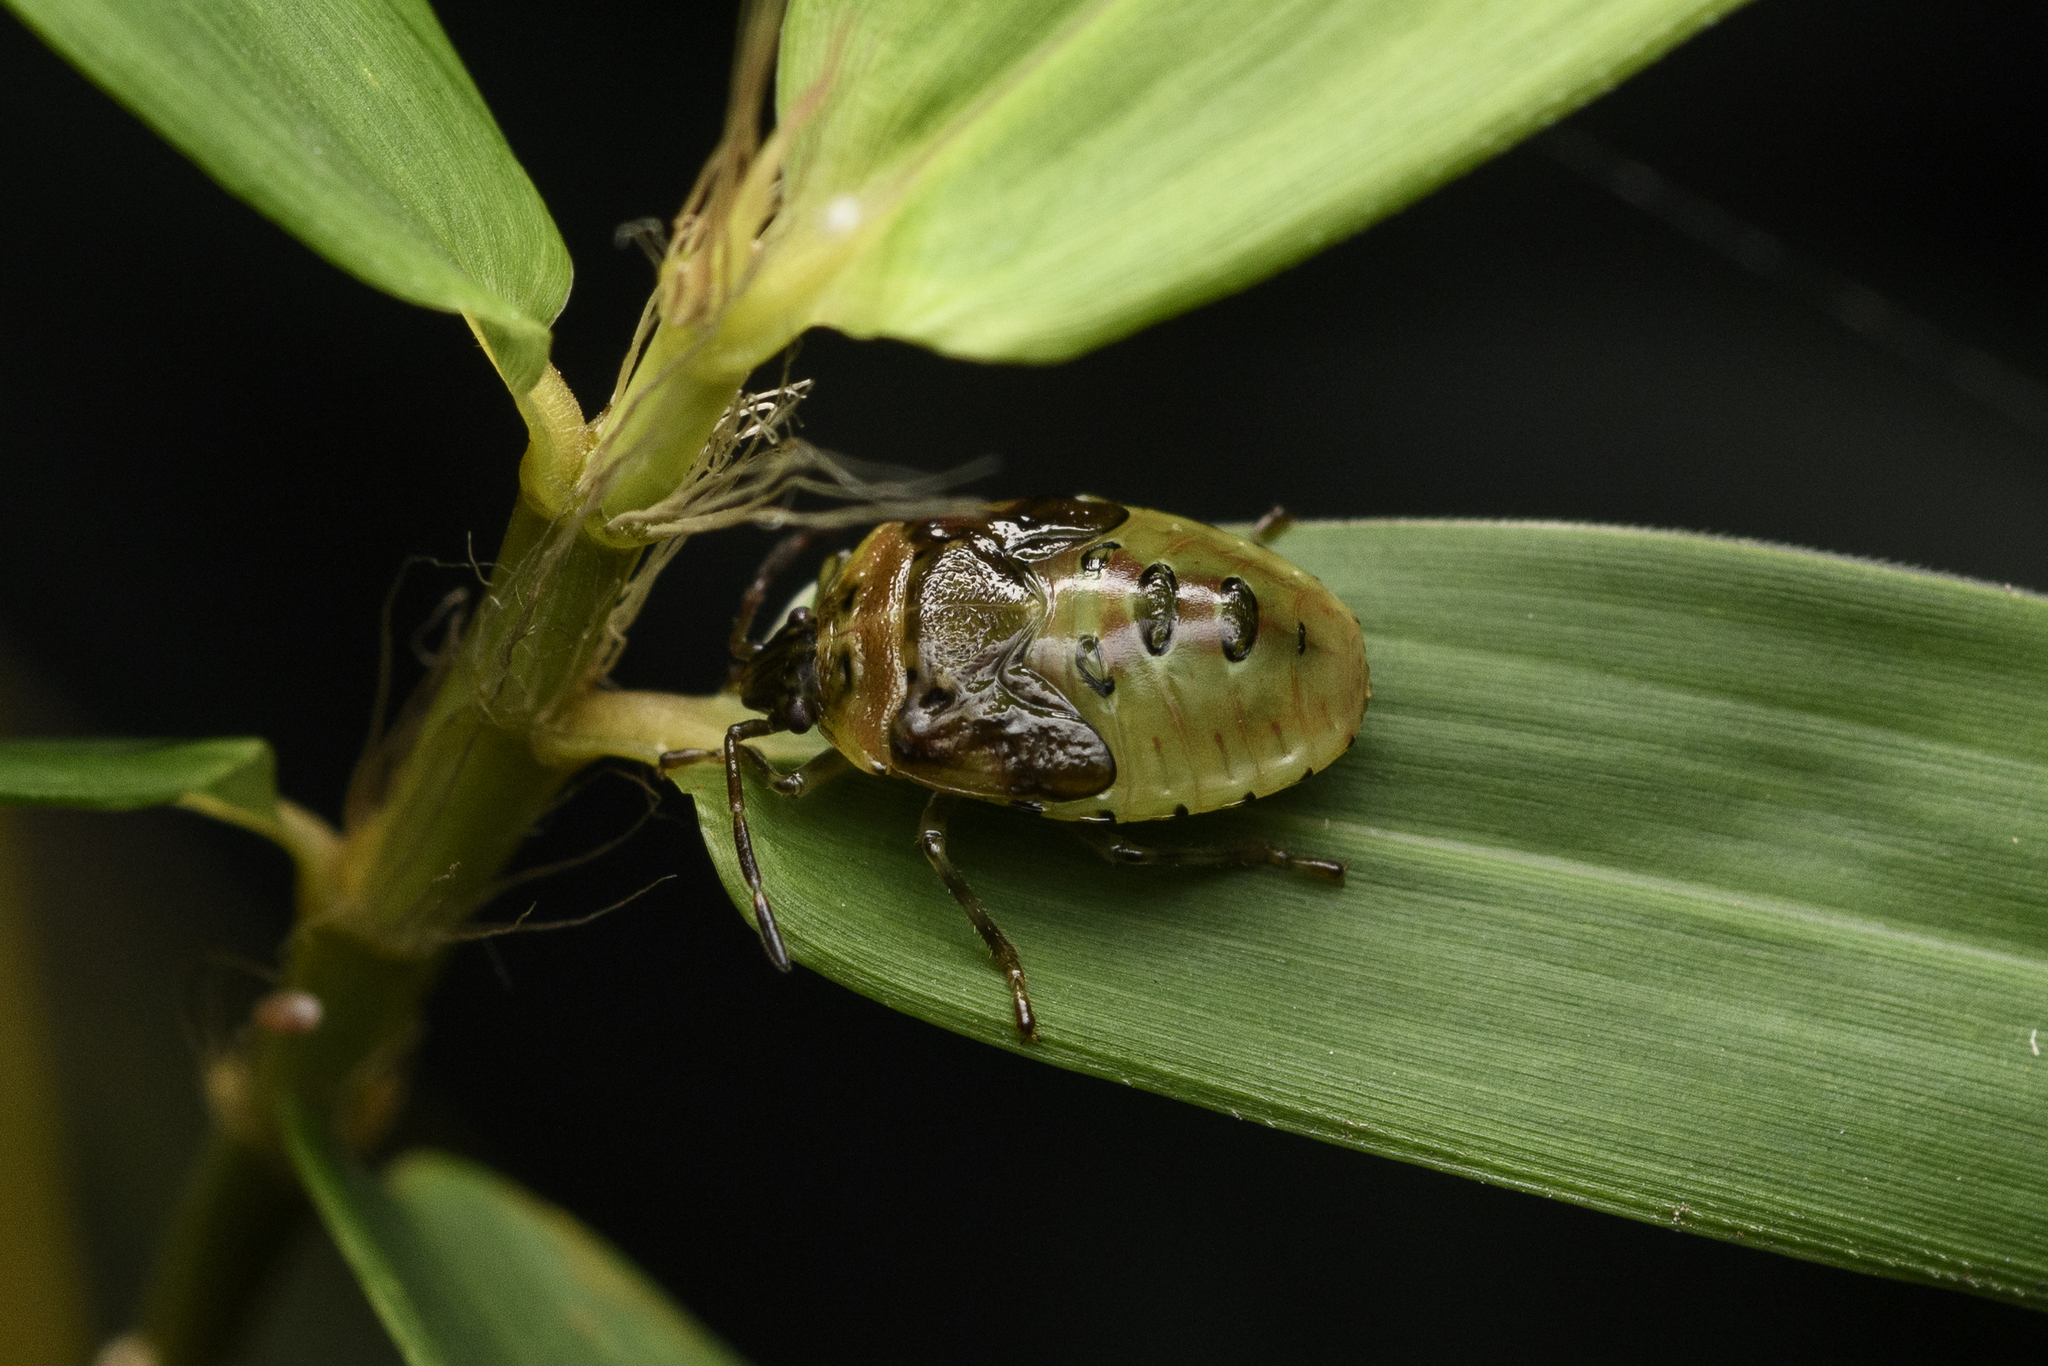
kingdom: Animalia
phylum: Arthropoda
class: Insecta
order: Hemiptera
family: Acanthosomatidae
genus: Elasmostethus
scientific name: Elasmostethus nubilus
